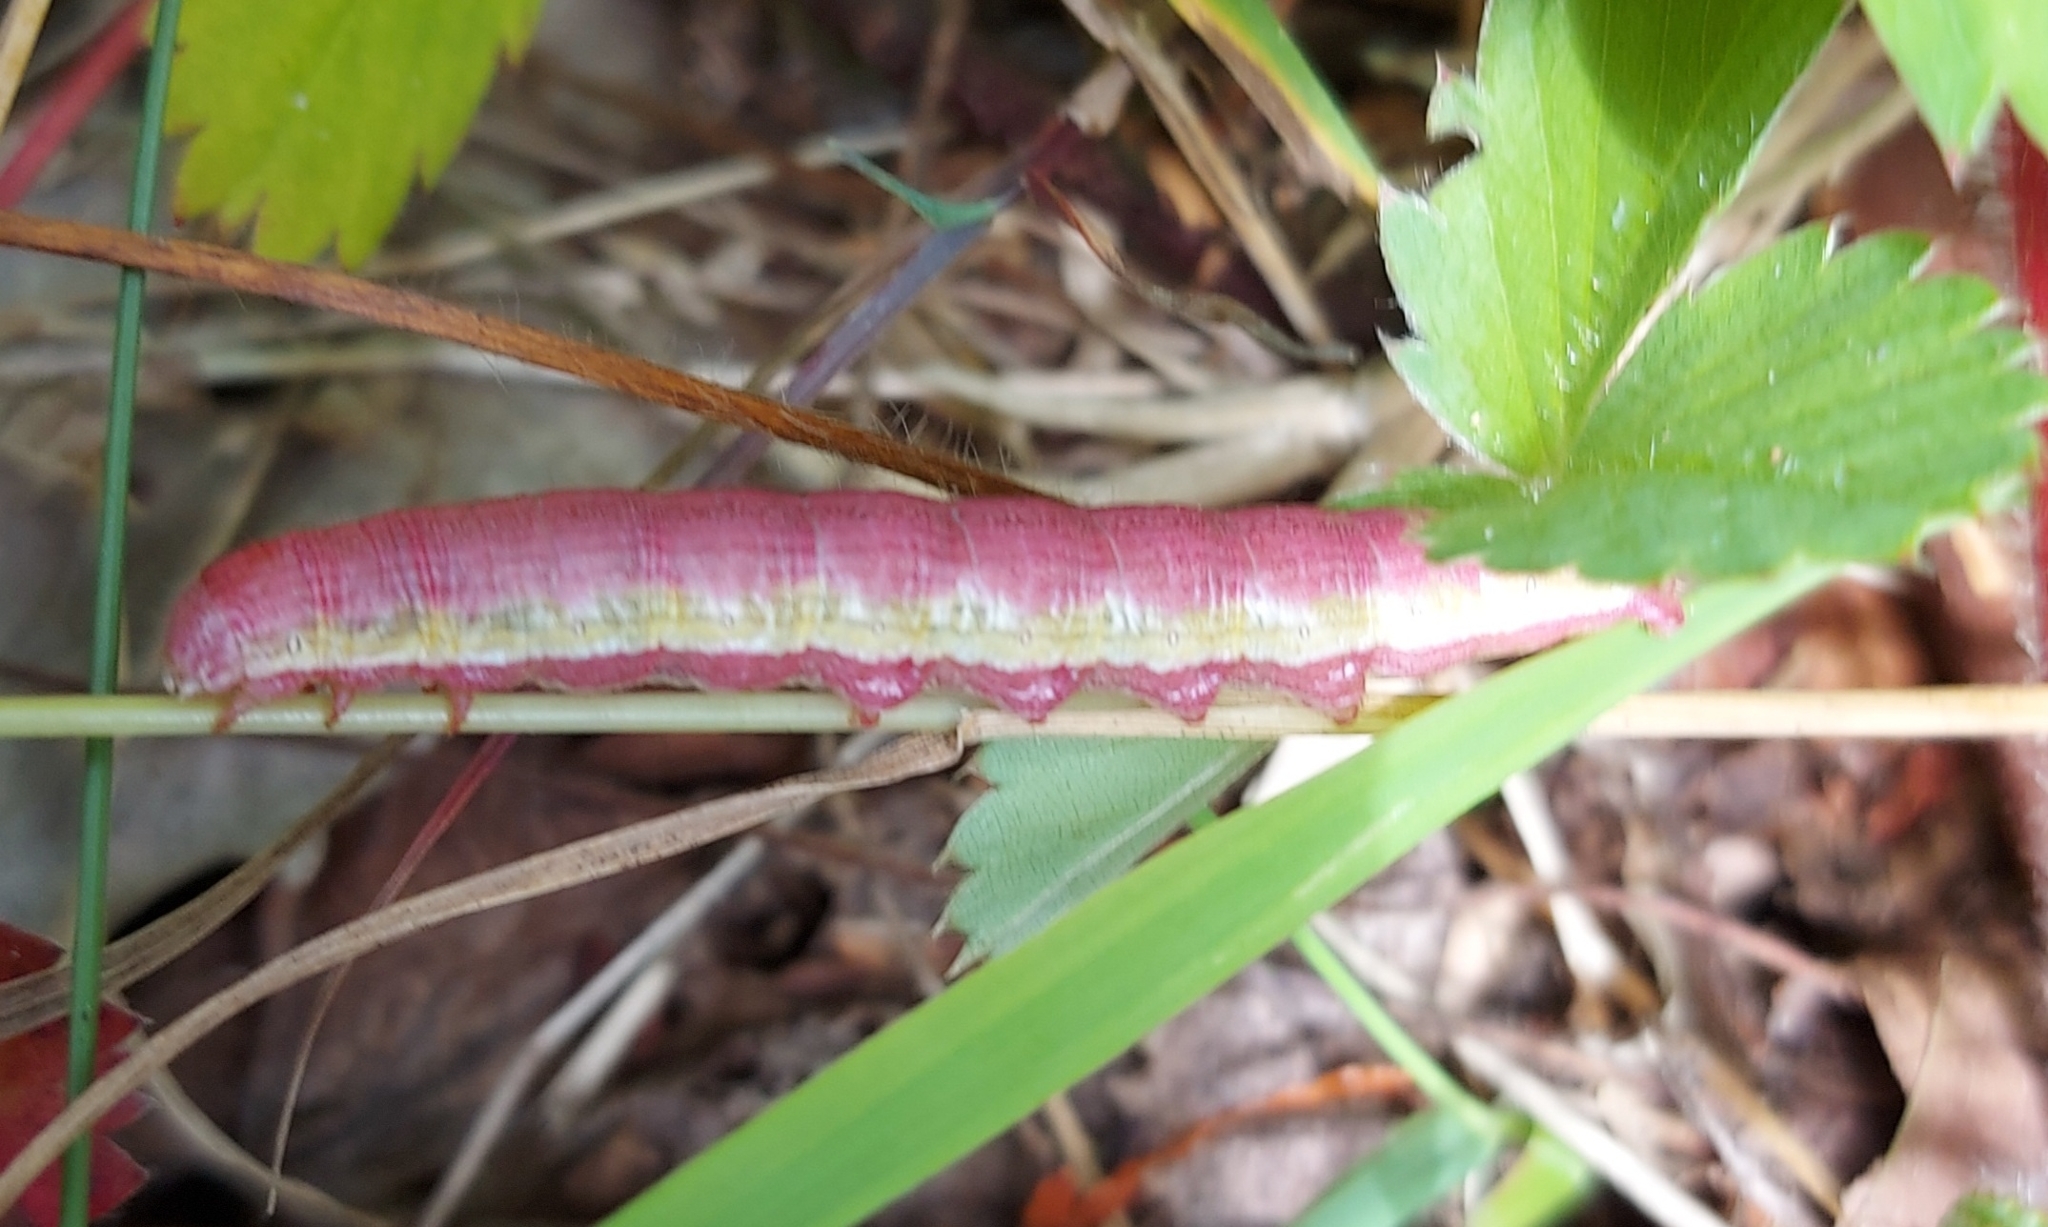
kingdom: Animalia
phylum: Arthropoda
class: Insecta
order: Lepidoptera
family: Noctuidae
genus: Cucullia
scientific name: Cucullia florea
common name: Gray hooded owlet
